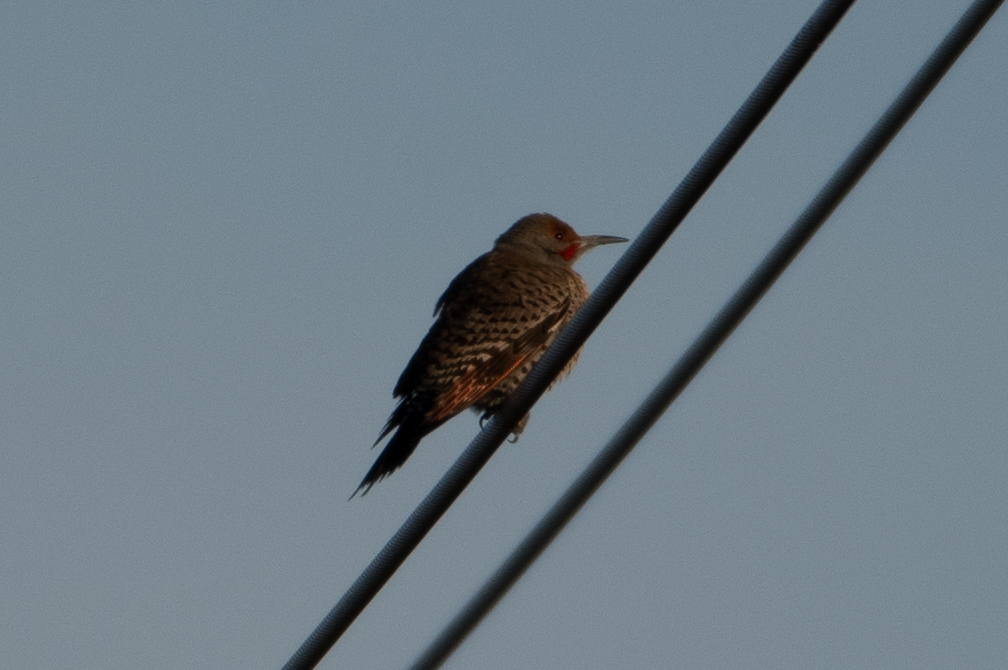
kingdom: Animalia
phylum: Chordata
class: Aves
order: Piciformes
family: Picidae
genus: Colaptes
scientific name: Colaptes auratus
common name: Northern flicker
